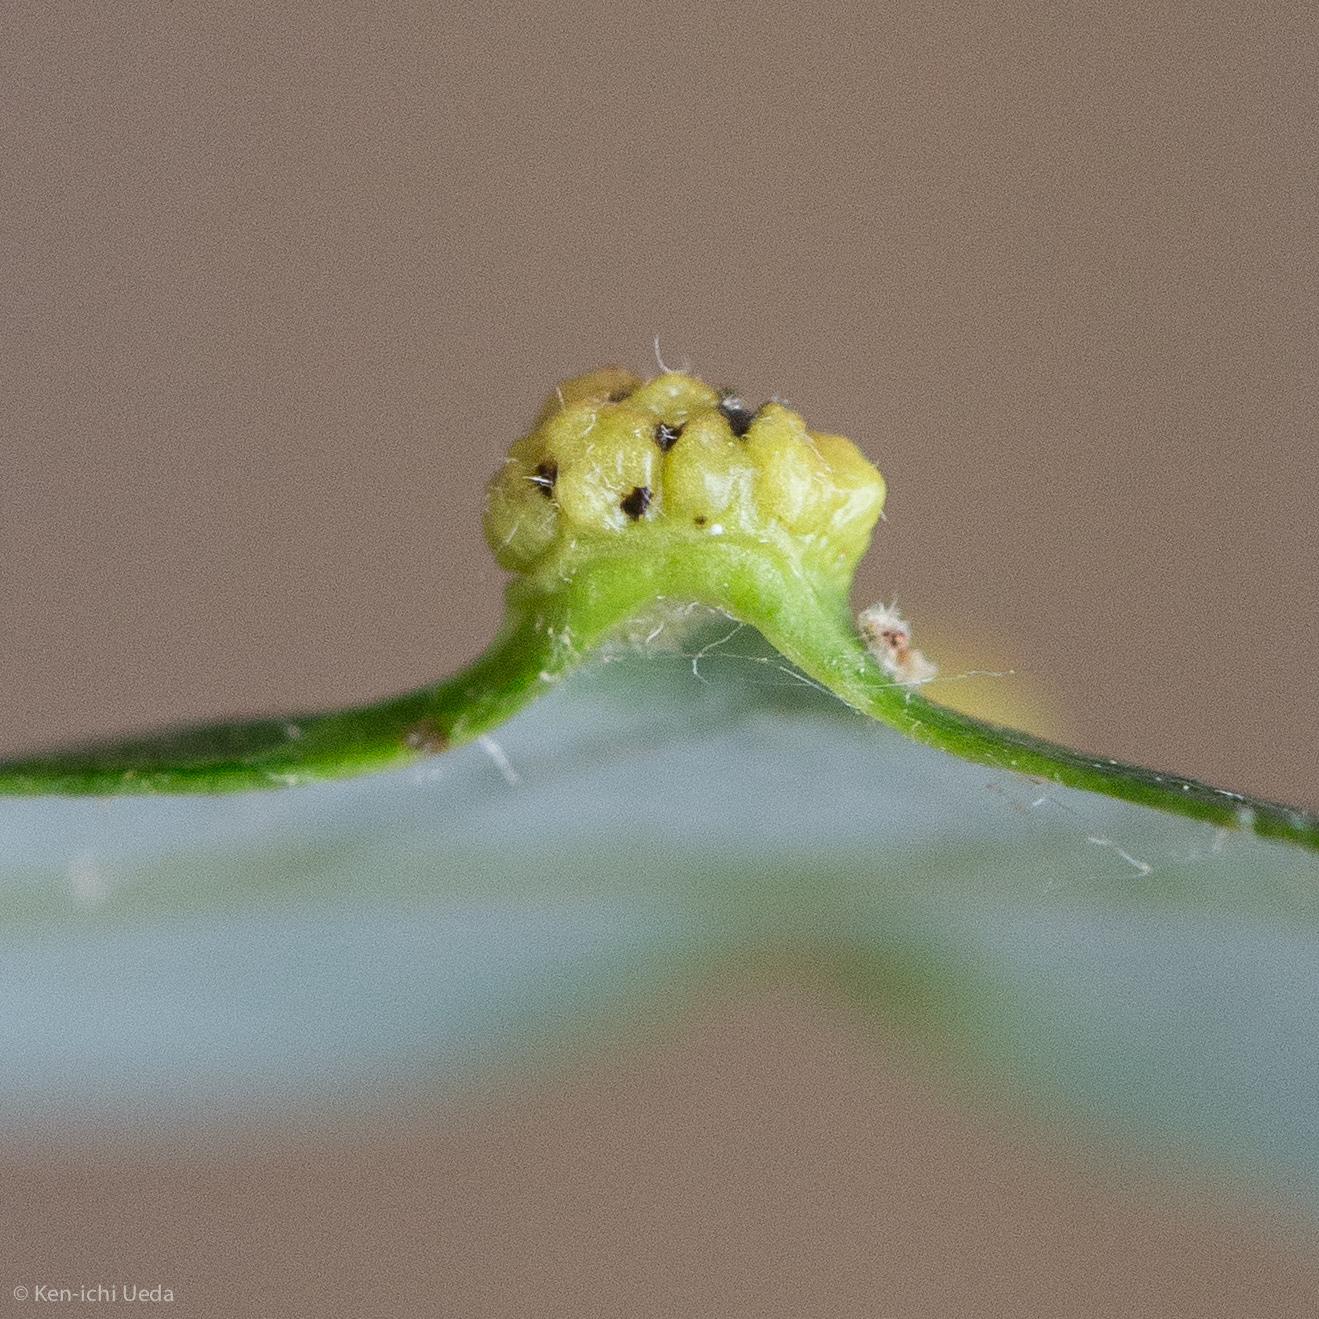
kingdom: Animalia
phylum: Arthropoda
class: Arachnida
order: Trombidiformes
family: Eriophyidae
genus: Aculus
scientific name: Aculus tetanothrix
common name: Willow bead gall mite
